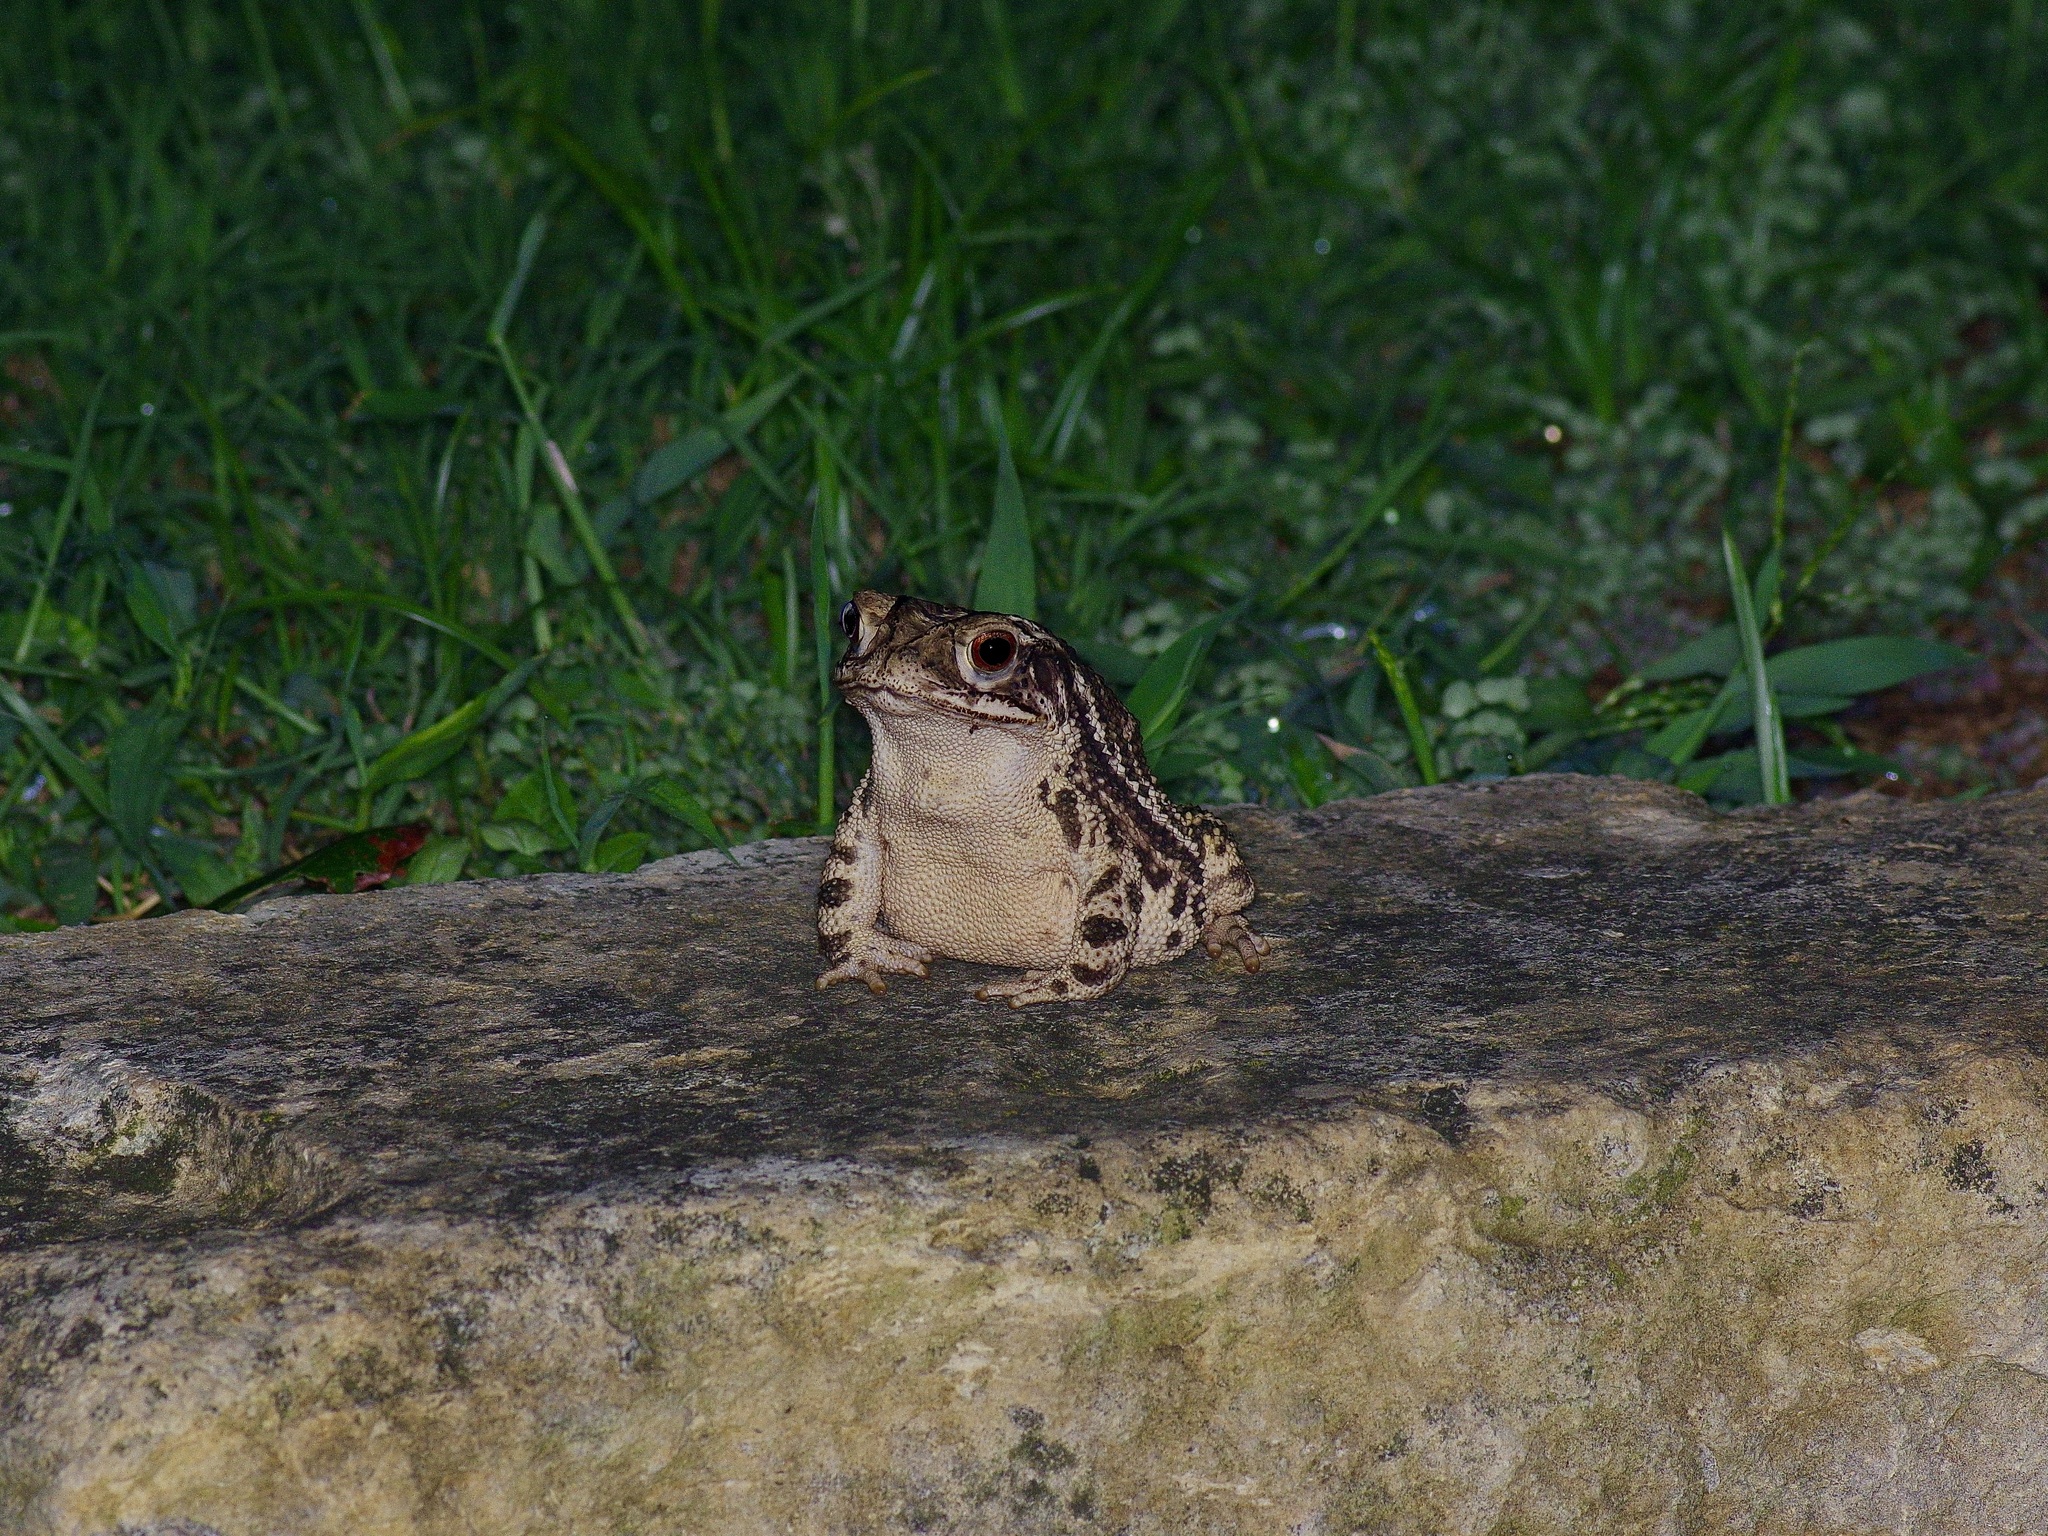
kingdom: Animalia
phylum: Chordata
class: Amphibia
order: Anura
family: Bufonidae
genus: Incilius
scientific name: Incilius nebulifer
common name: Gulf coast toad
